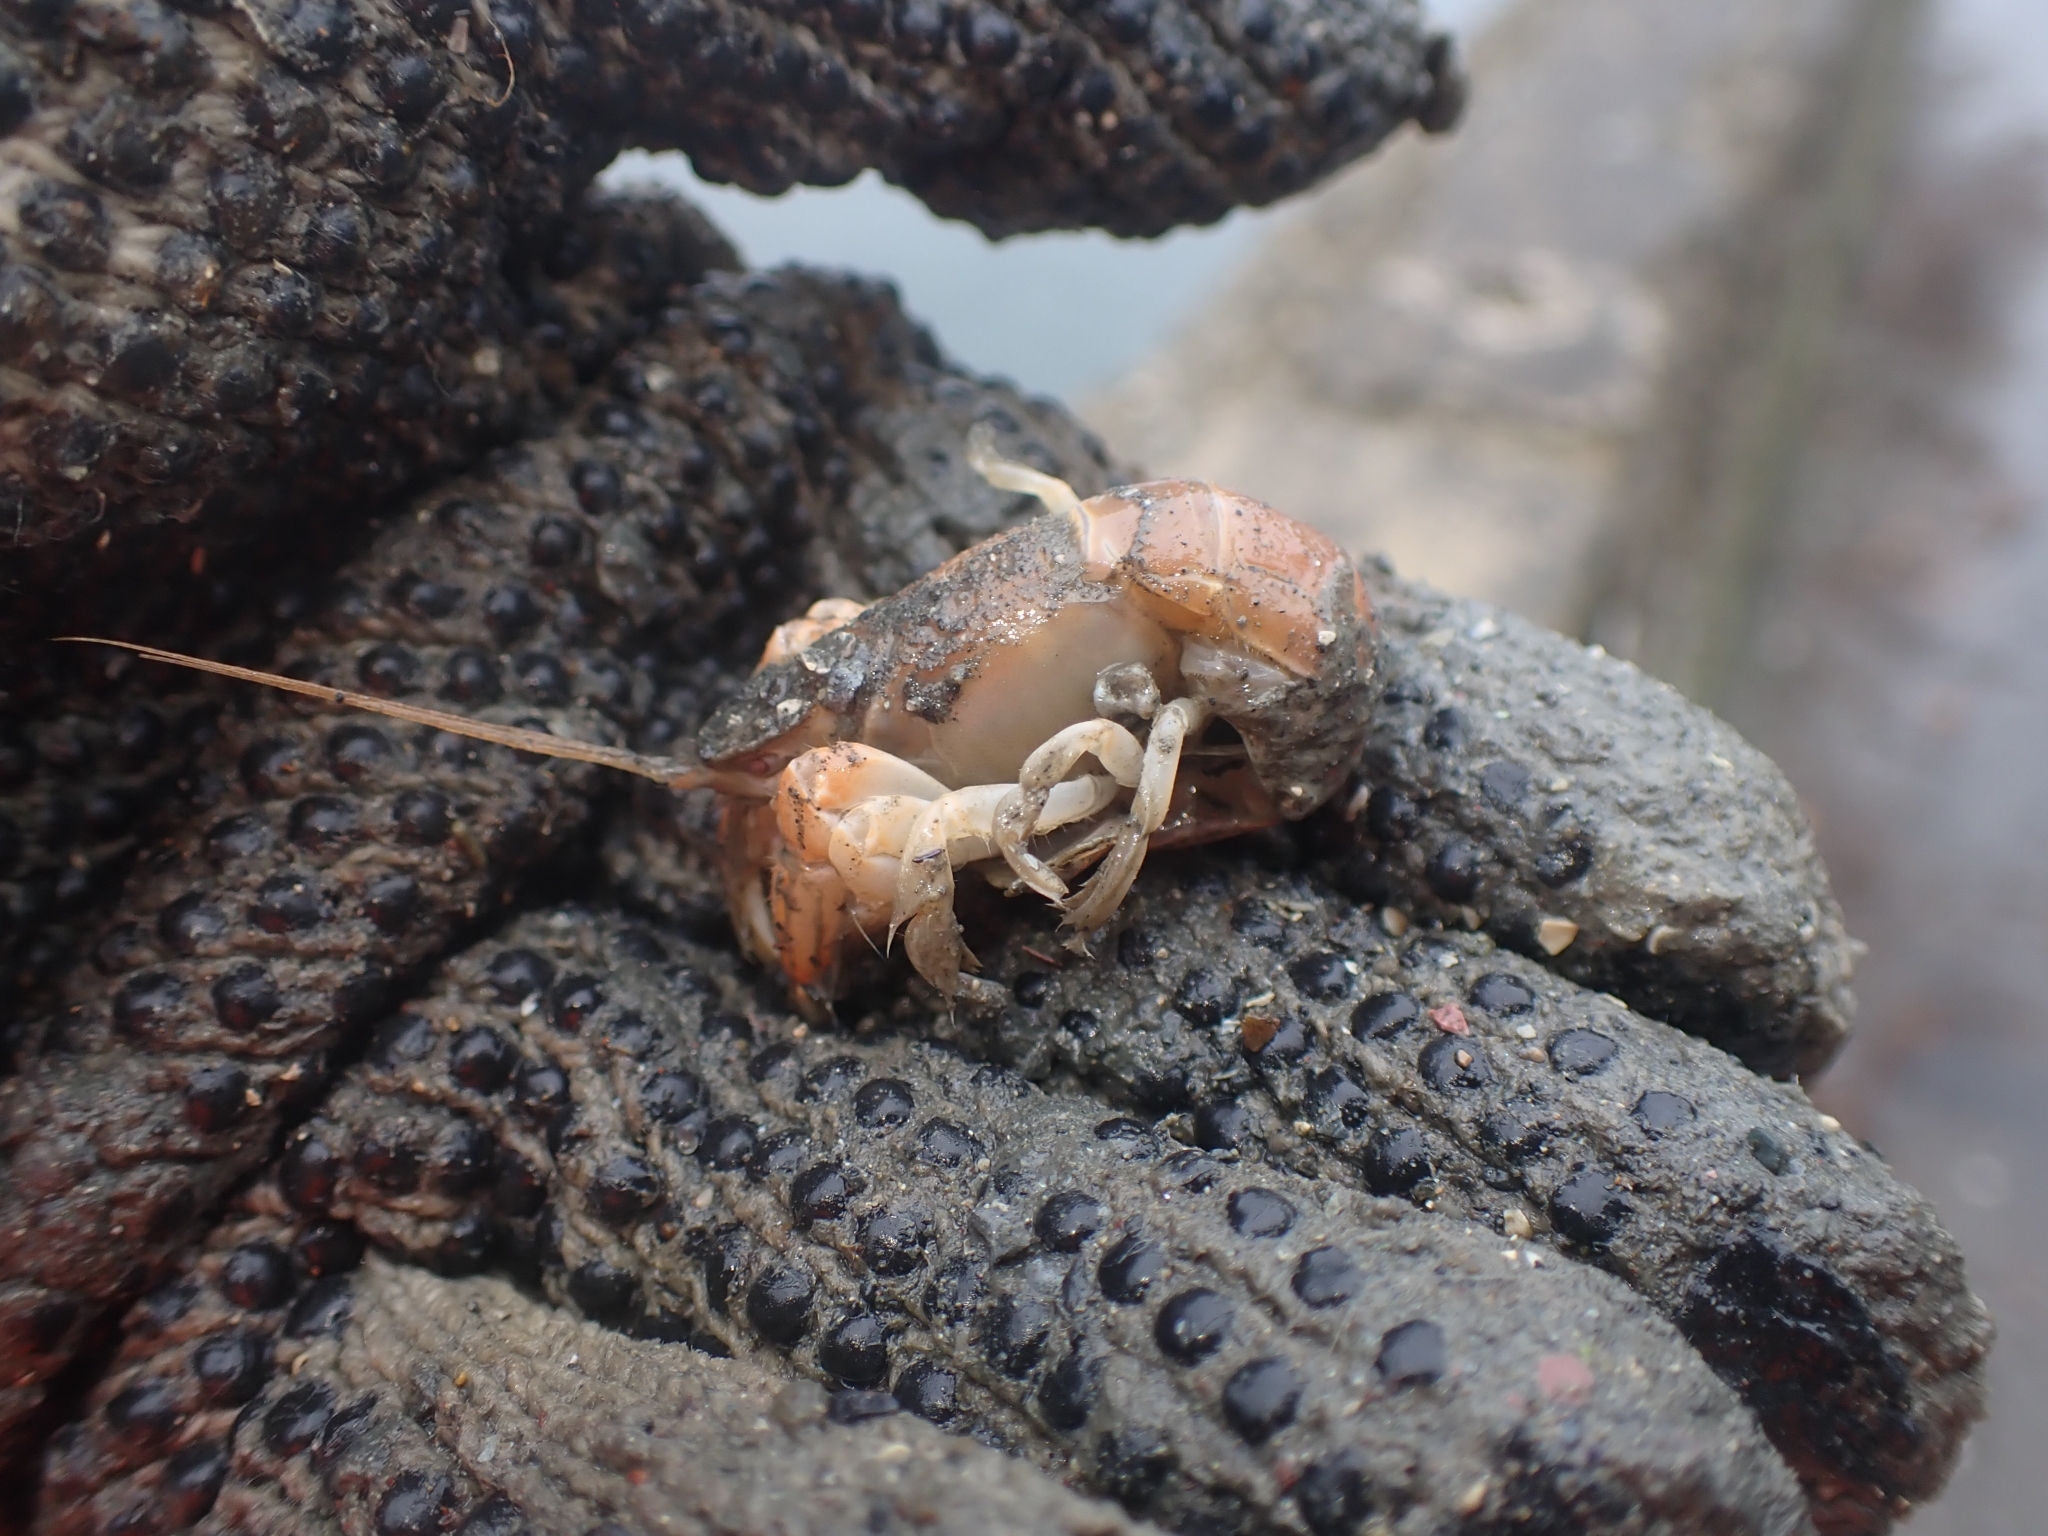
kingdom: Animalia
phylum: Arthropoda
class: Malacostraca
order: Decapoda
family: Upogebiidae
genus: Upogebia
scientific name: Upogebia hirtifrons
